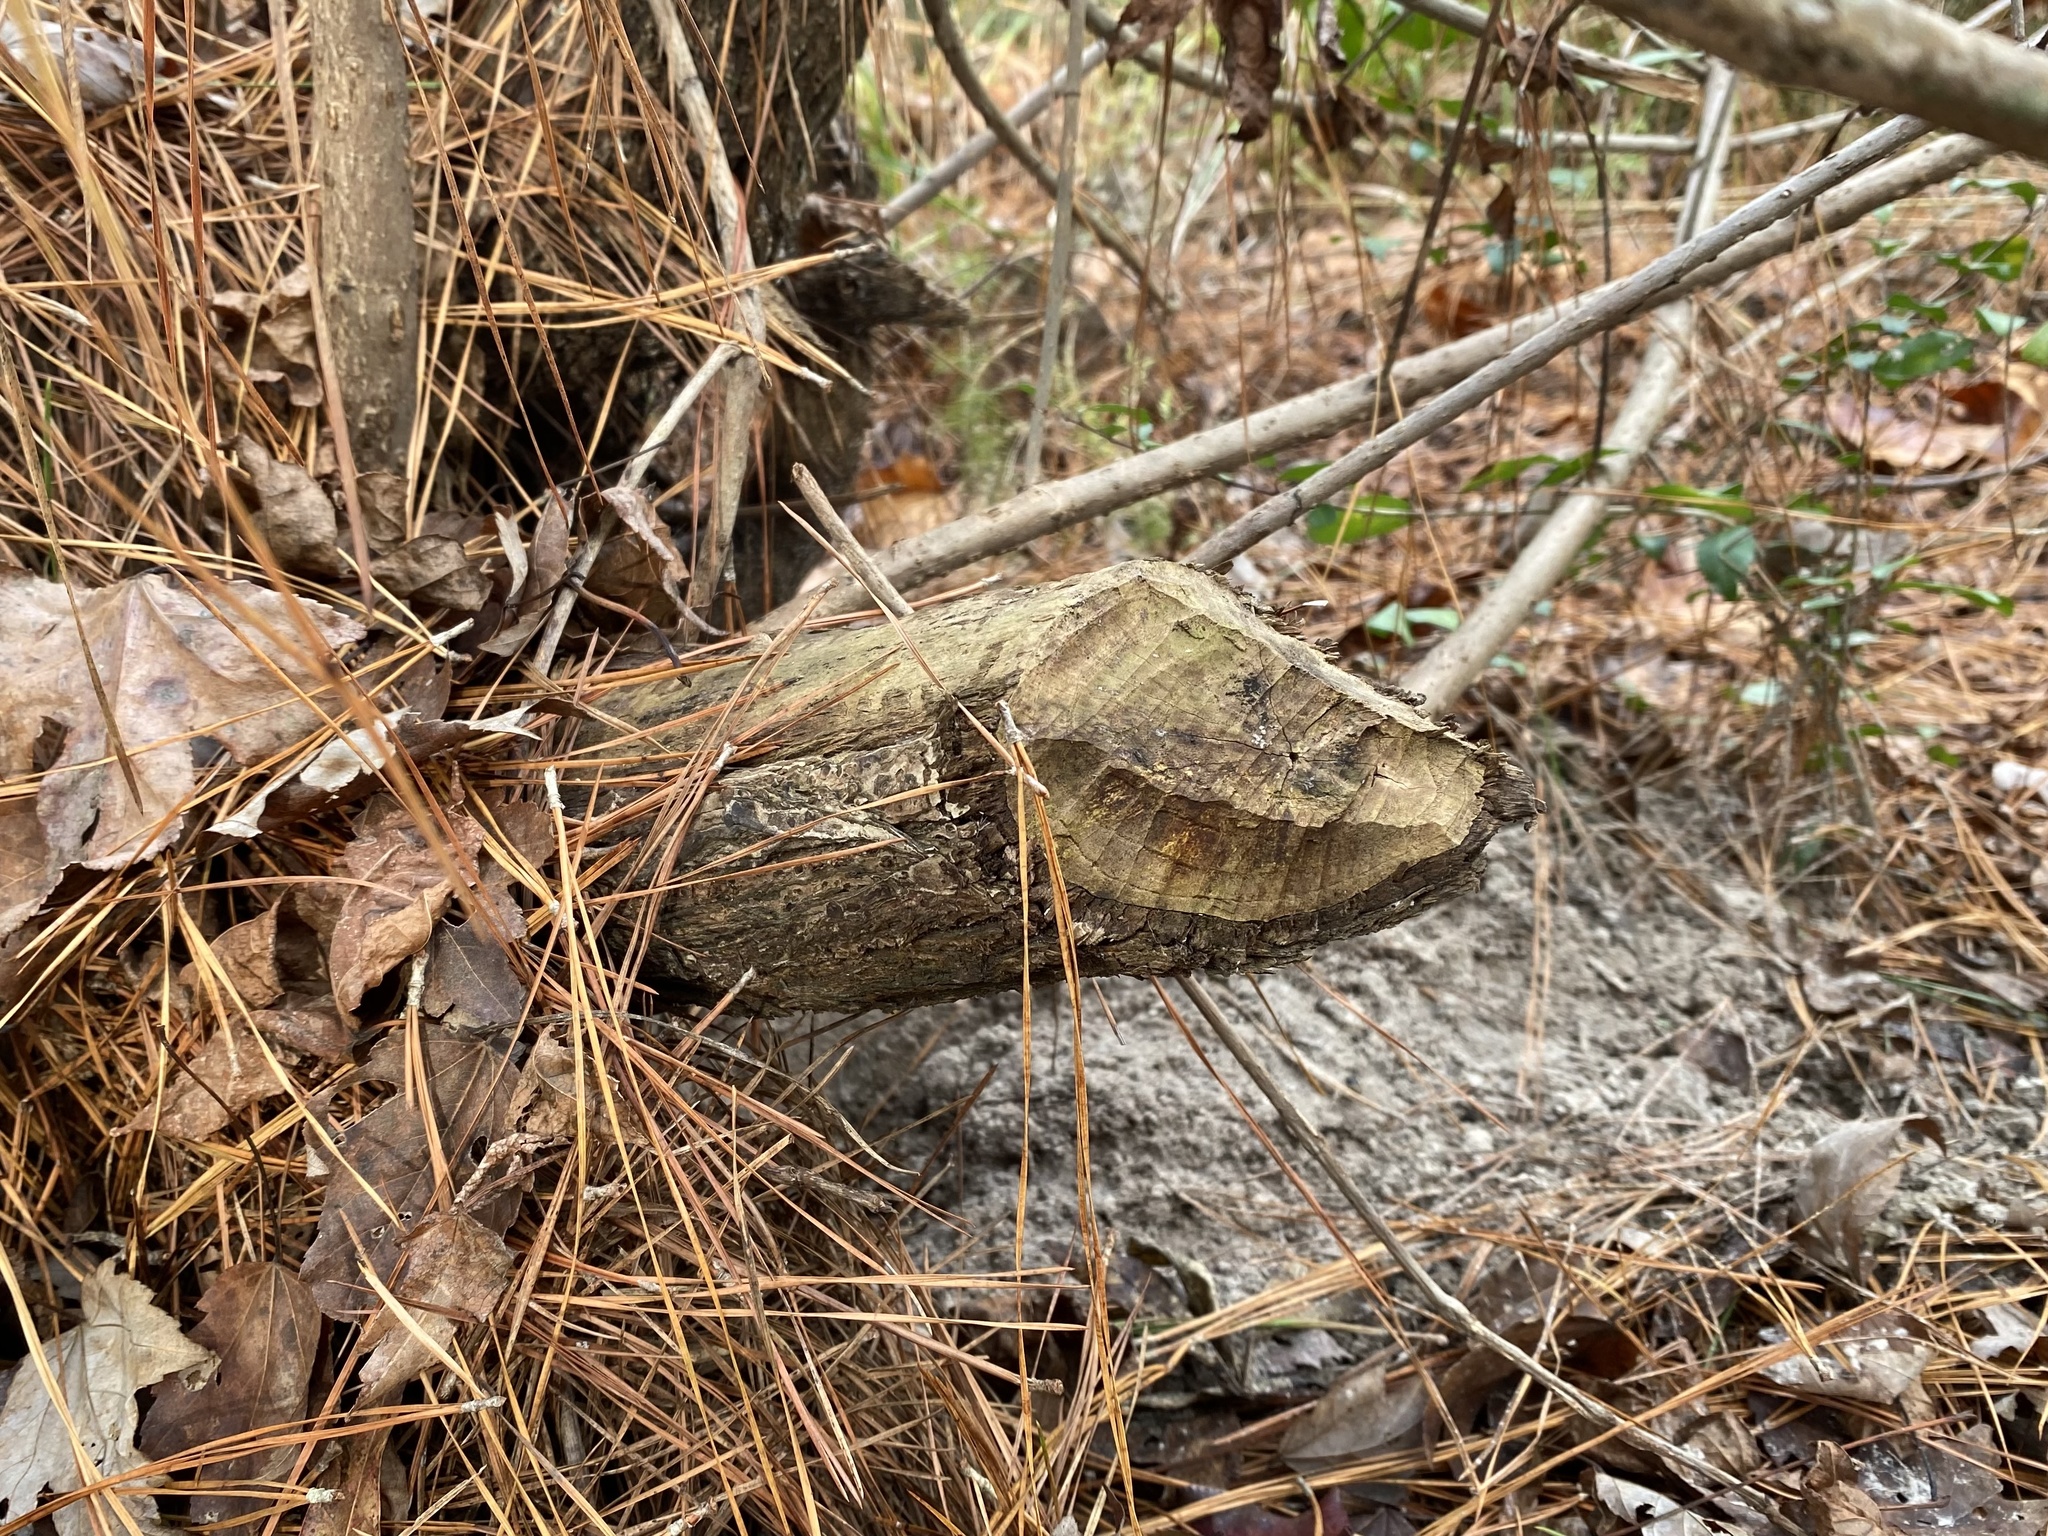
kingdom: Animalia
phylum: Chordata
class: Mammalia
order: Rodentia
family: Castoridae
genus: Castor
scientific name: Castor canadensis
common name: American beaver
